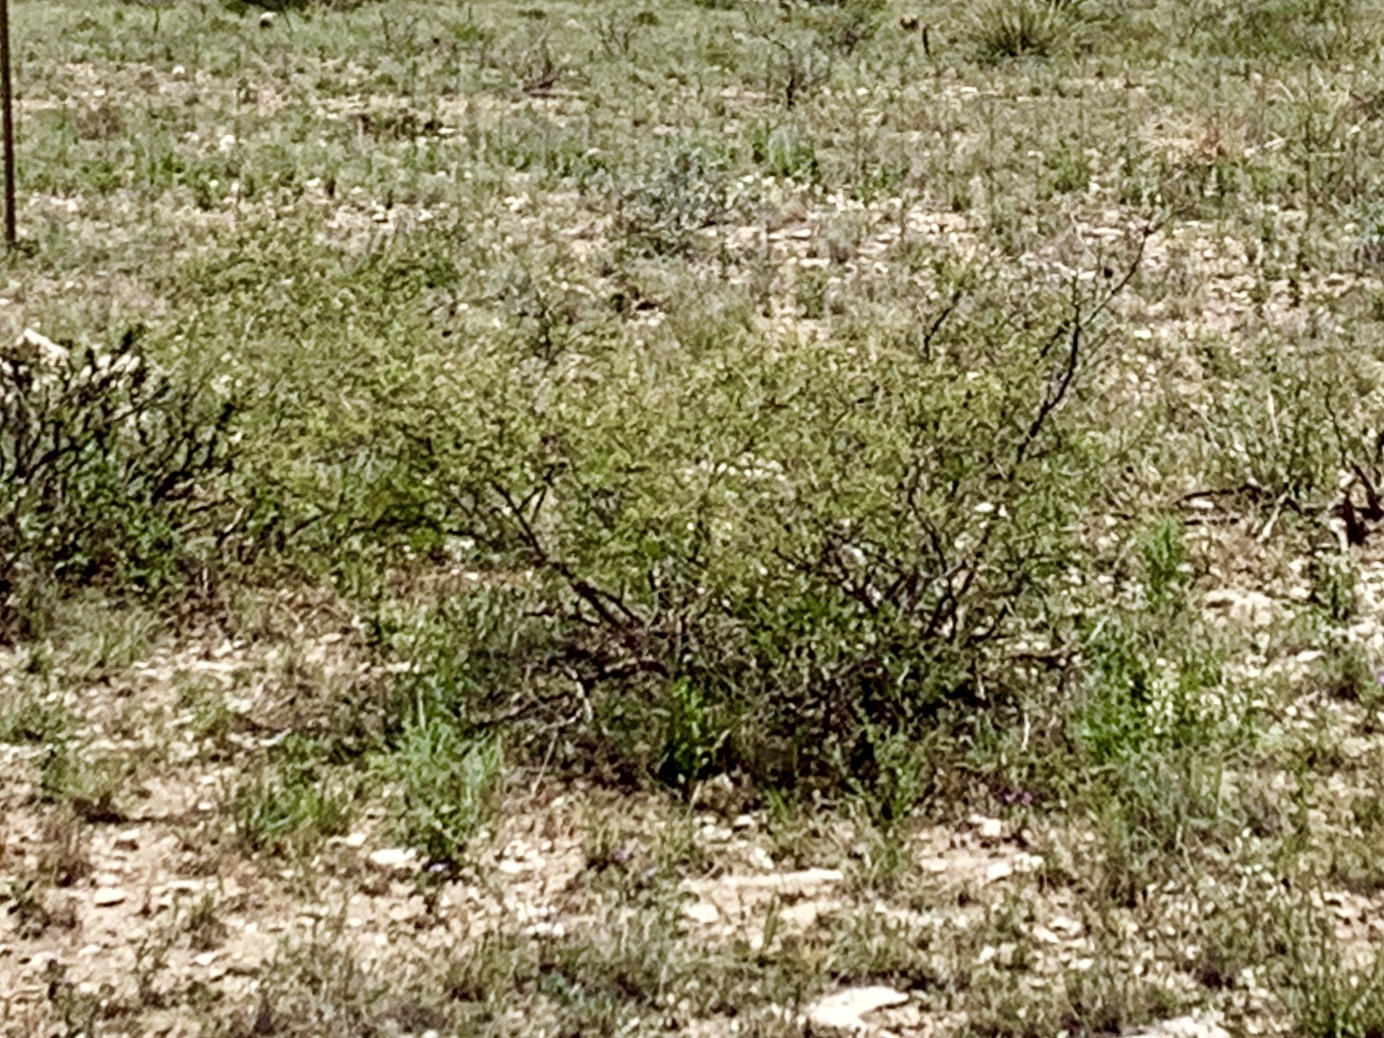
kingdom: Plantae
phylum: Tracheophyta
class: Magnoliopsida
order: Zygophyllales
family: Zygophyllaceae
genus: Larrea
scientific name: Larrea tridentata
